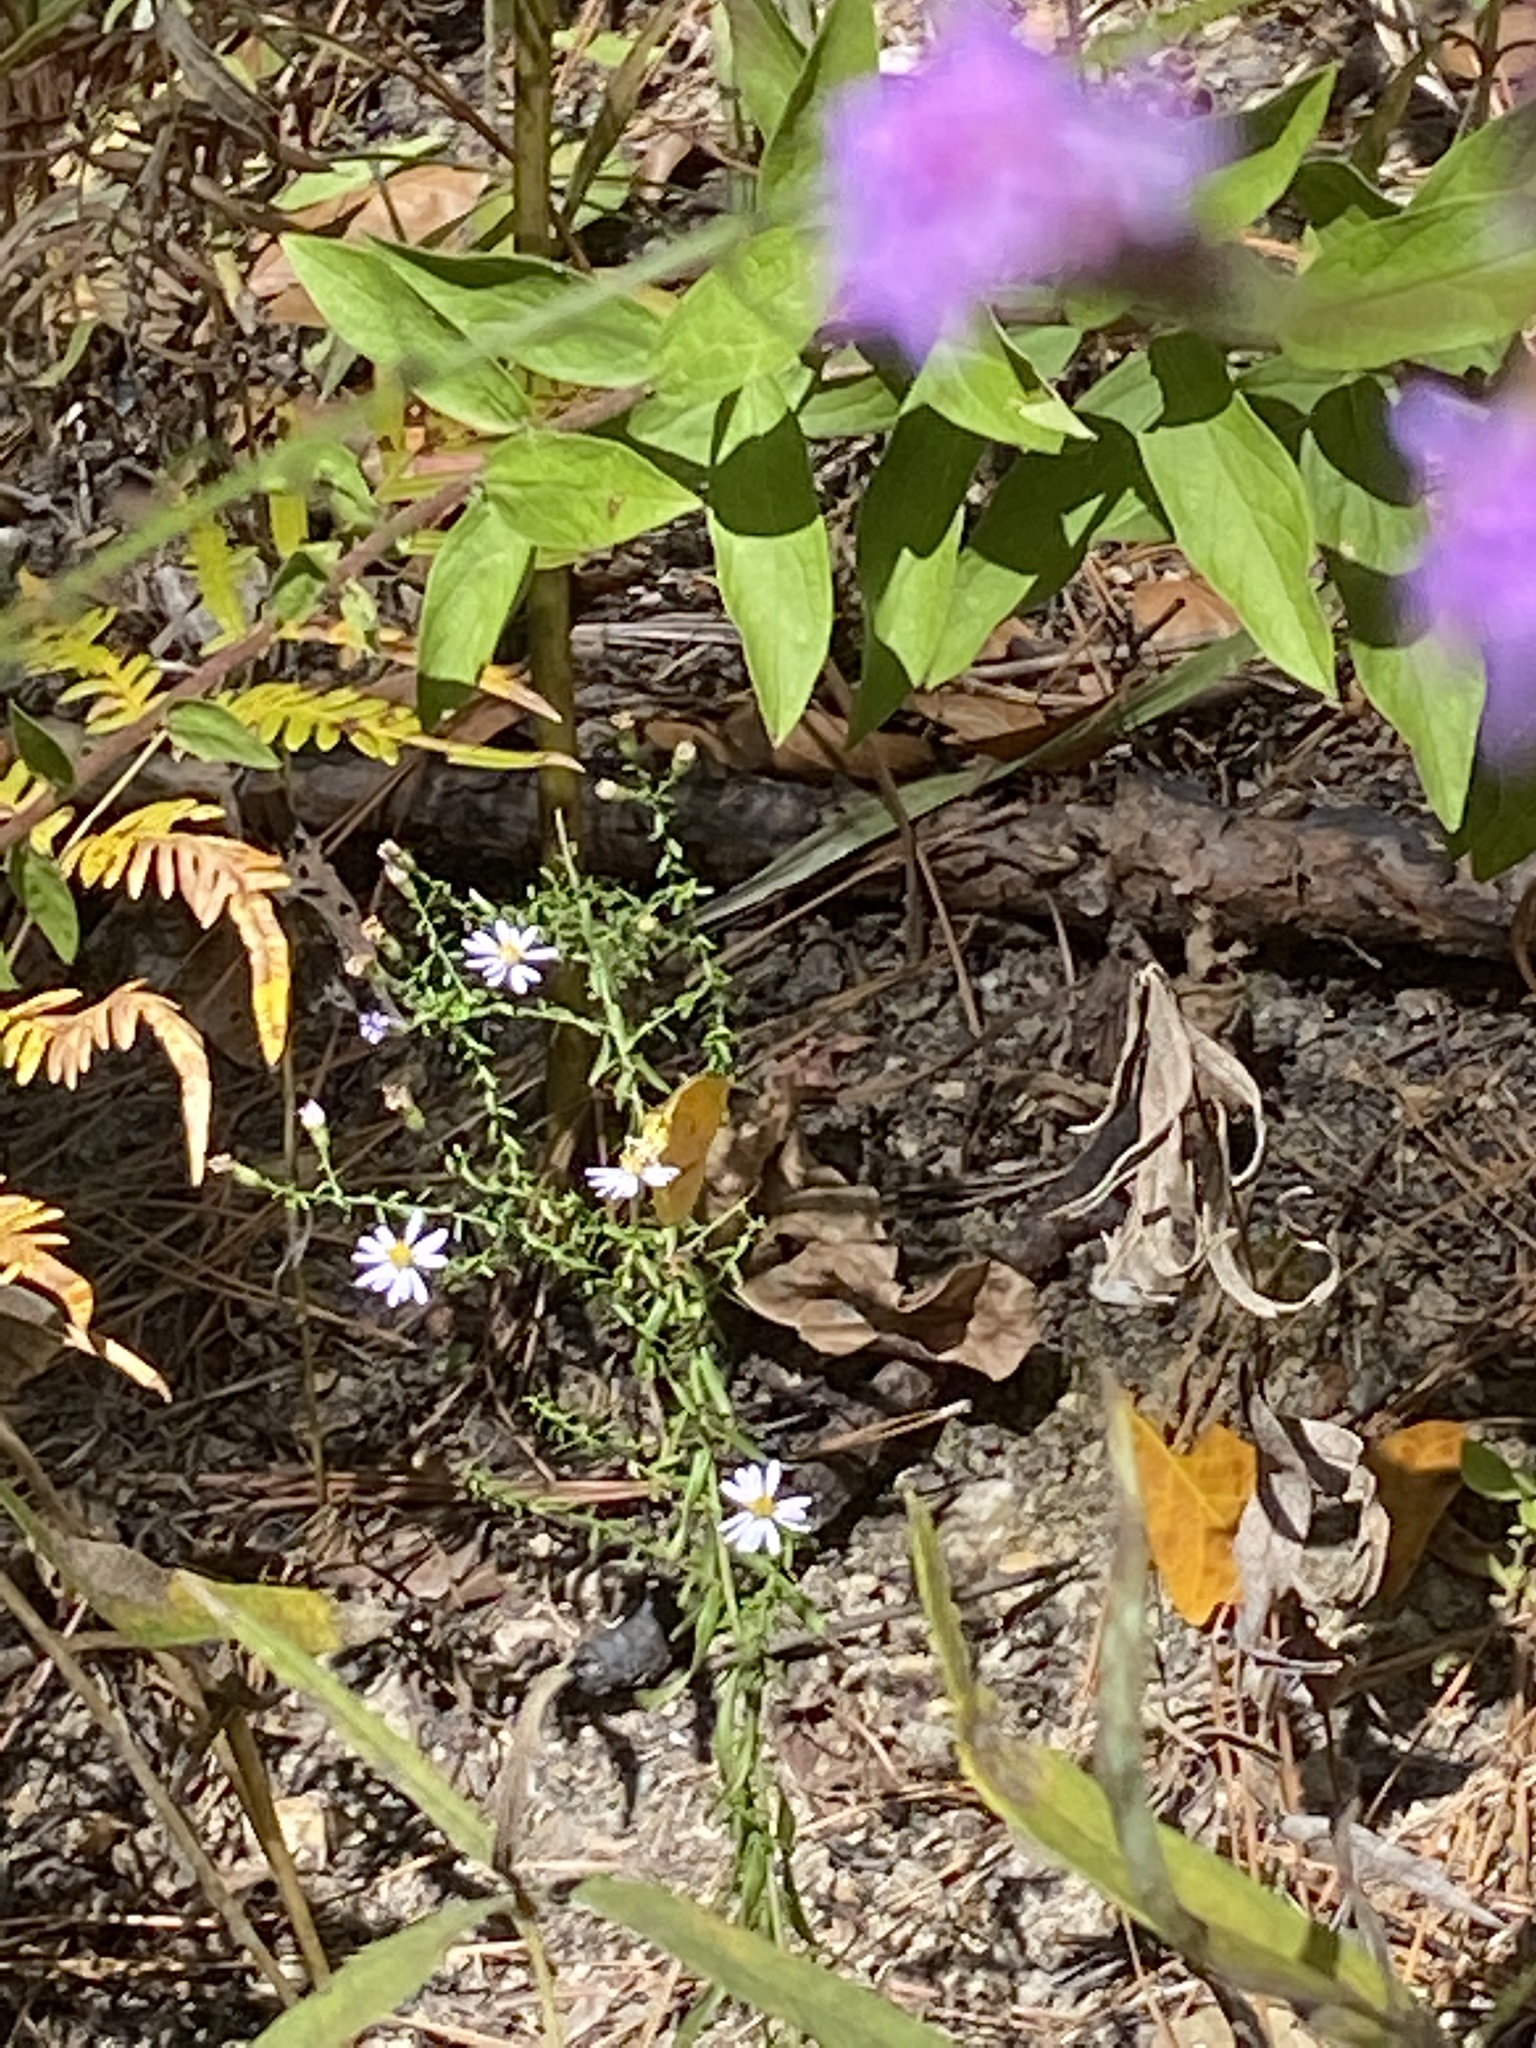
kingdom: Animalia
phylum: Arthropoda
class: Insecta
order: Lepidoptera
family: Pieridae
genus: Abaeis
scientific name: Abaeis nicippe
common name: Sleepy orange
